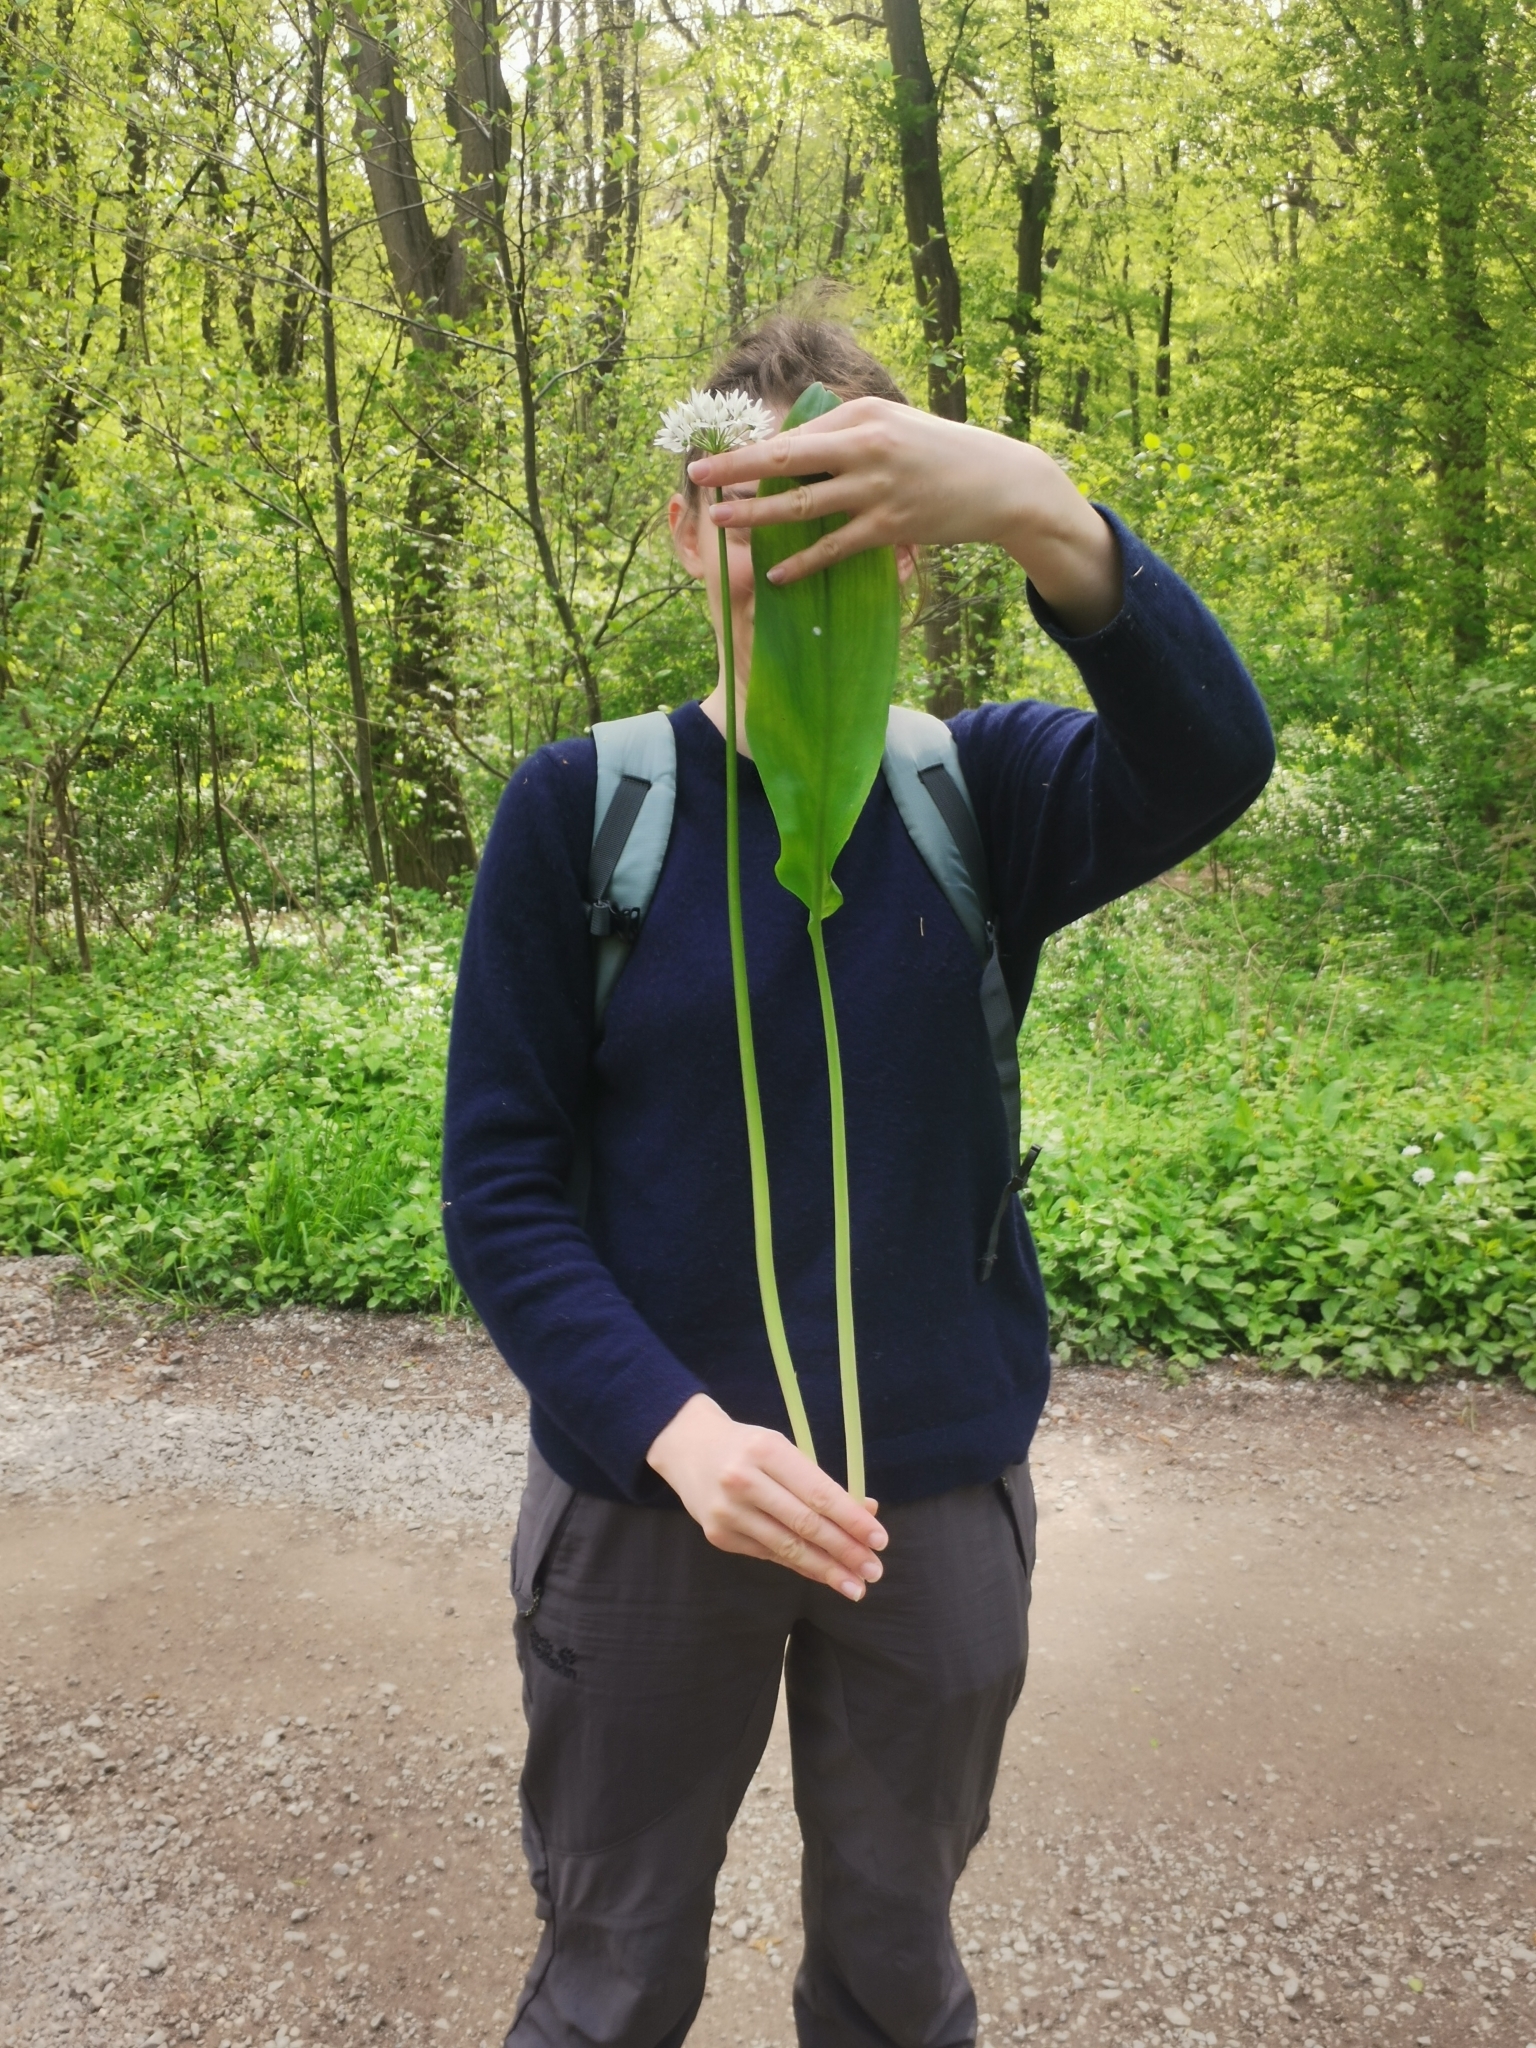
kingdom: Plantae
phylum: Tracheophyta
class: Liliopsida
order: Asparagales
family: Amaryllidaceae
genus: Allium
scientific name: Allium ursinum
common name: Ramsons
